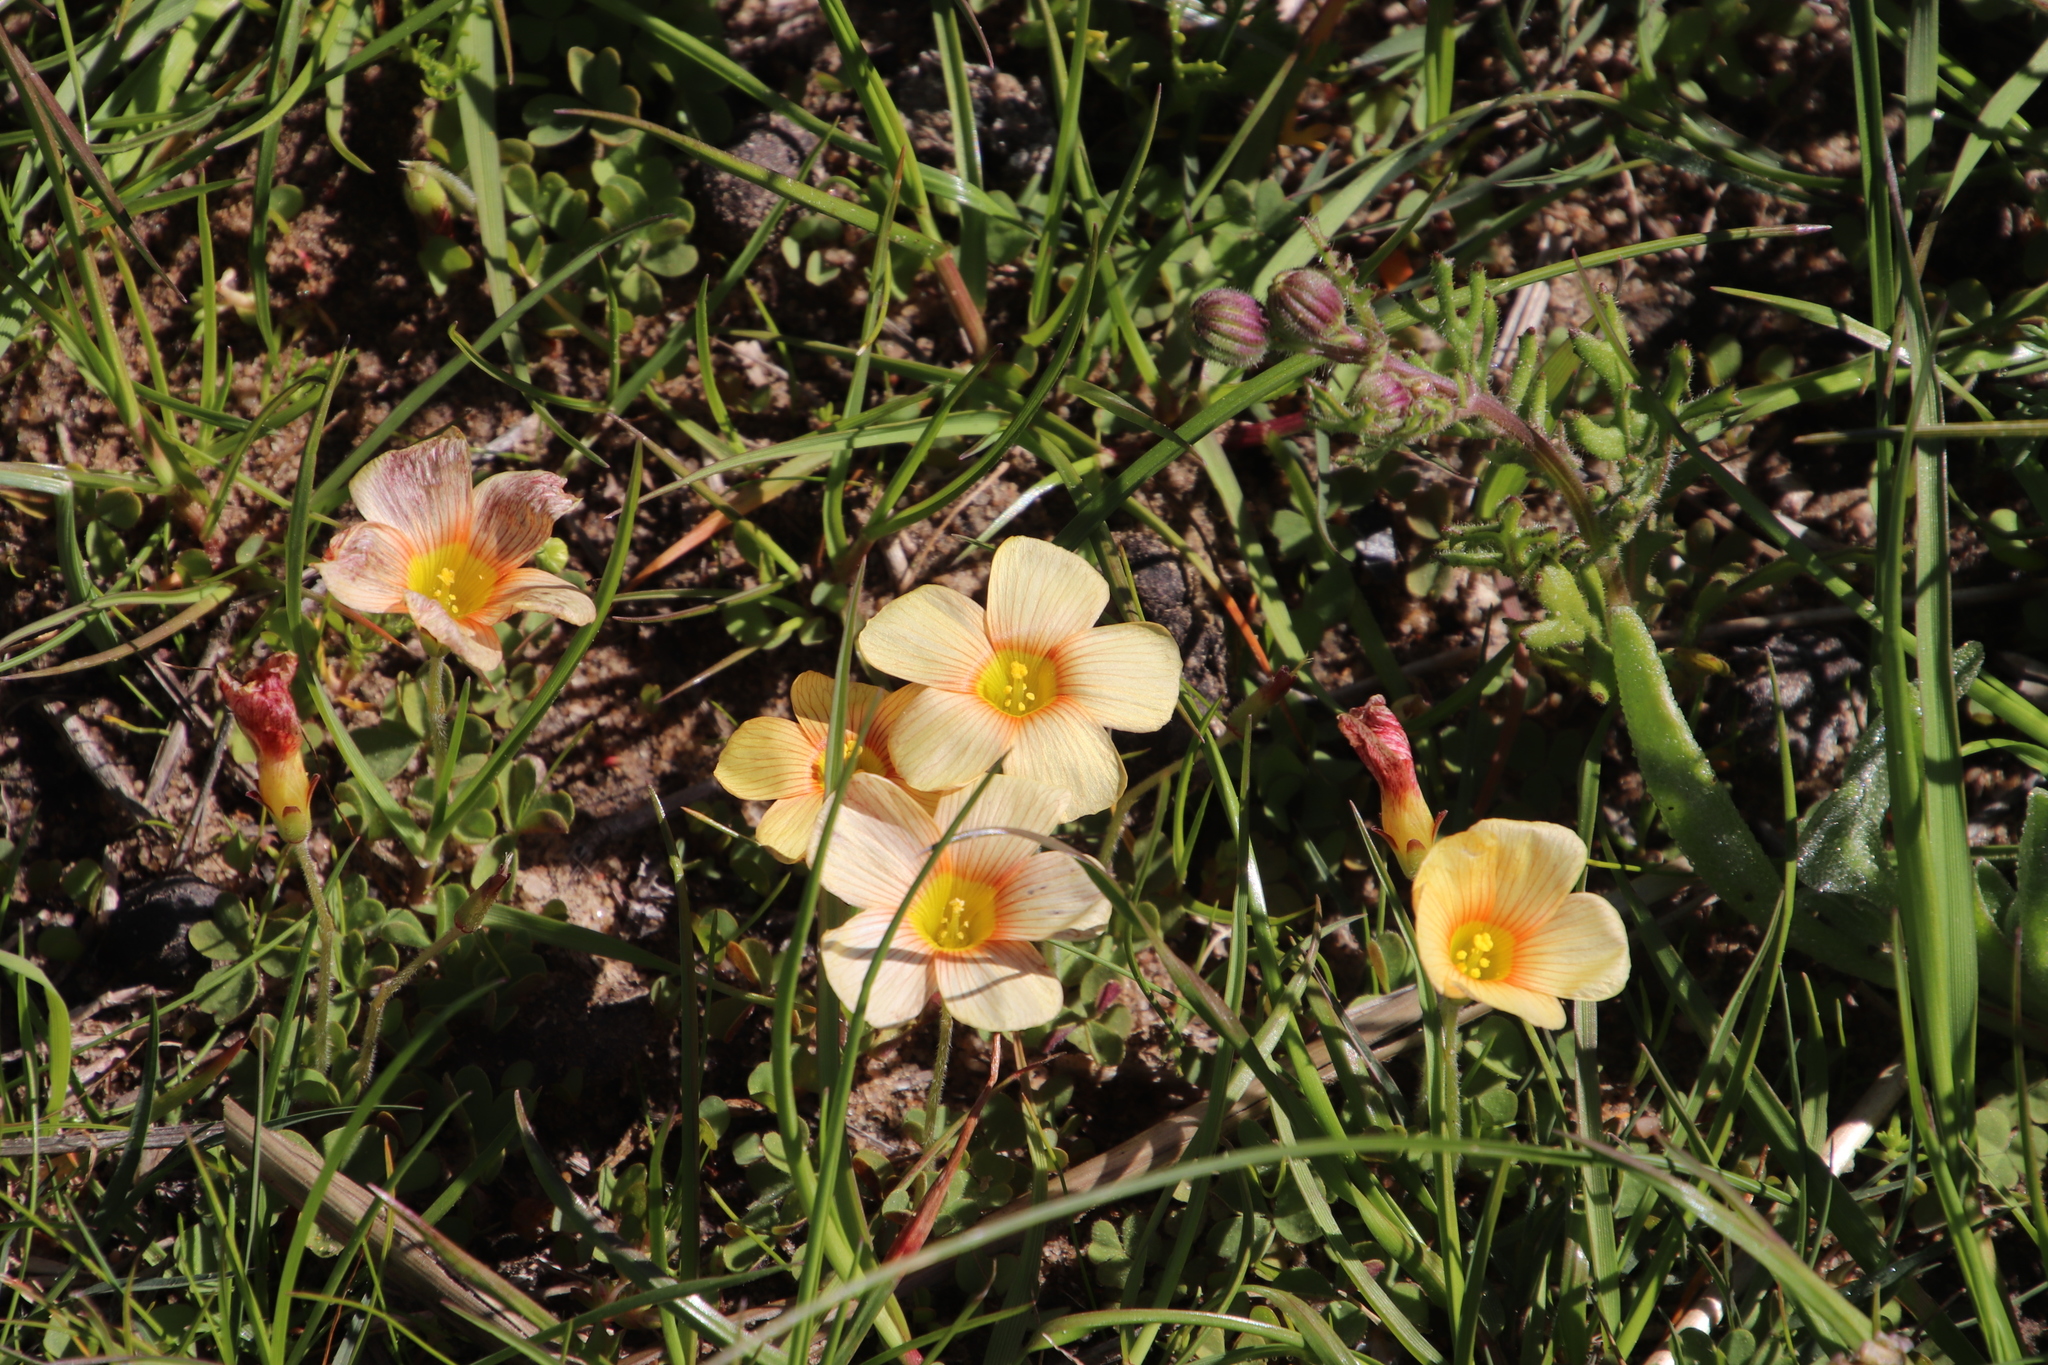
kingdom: Plantae
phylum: Tracheophyta
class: Magnoliopsida
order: Oxalidales
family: Oxalidaceae
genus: Oxalis
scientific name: Oxalis obtusa
